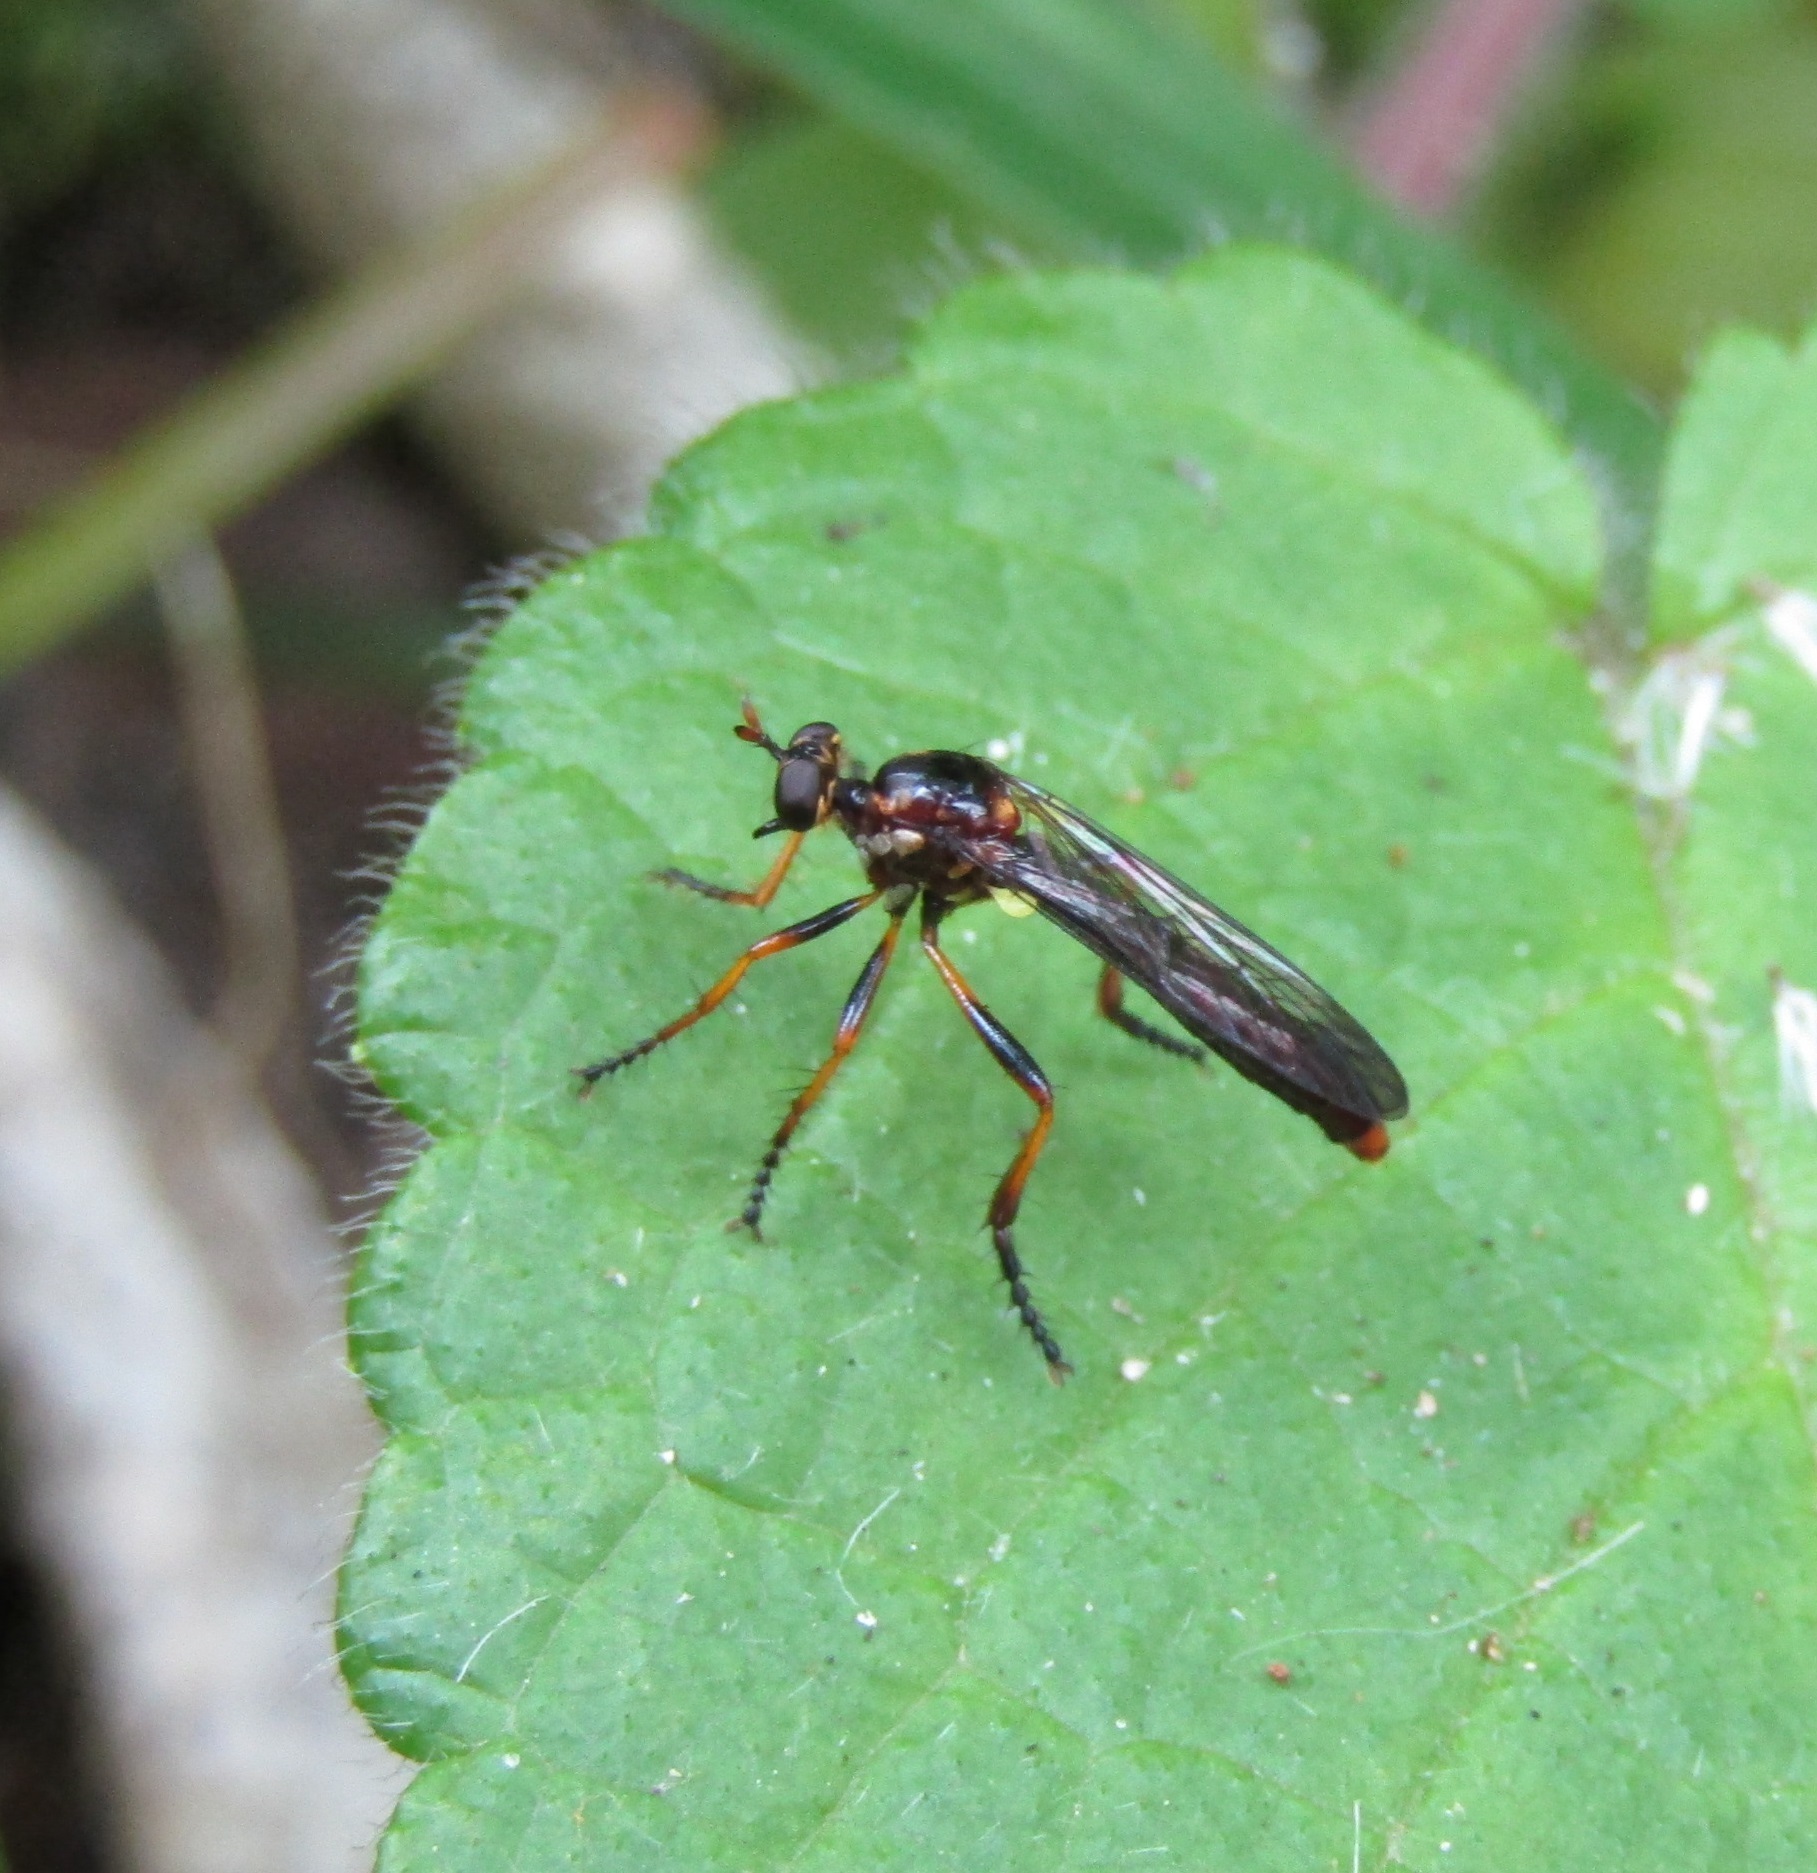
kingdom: Animalia
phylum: Arthropoda
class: Insecta
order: Diptera
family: Asilidae
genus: Saropogon
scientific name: Saropogon fascipes
